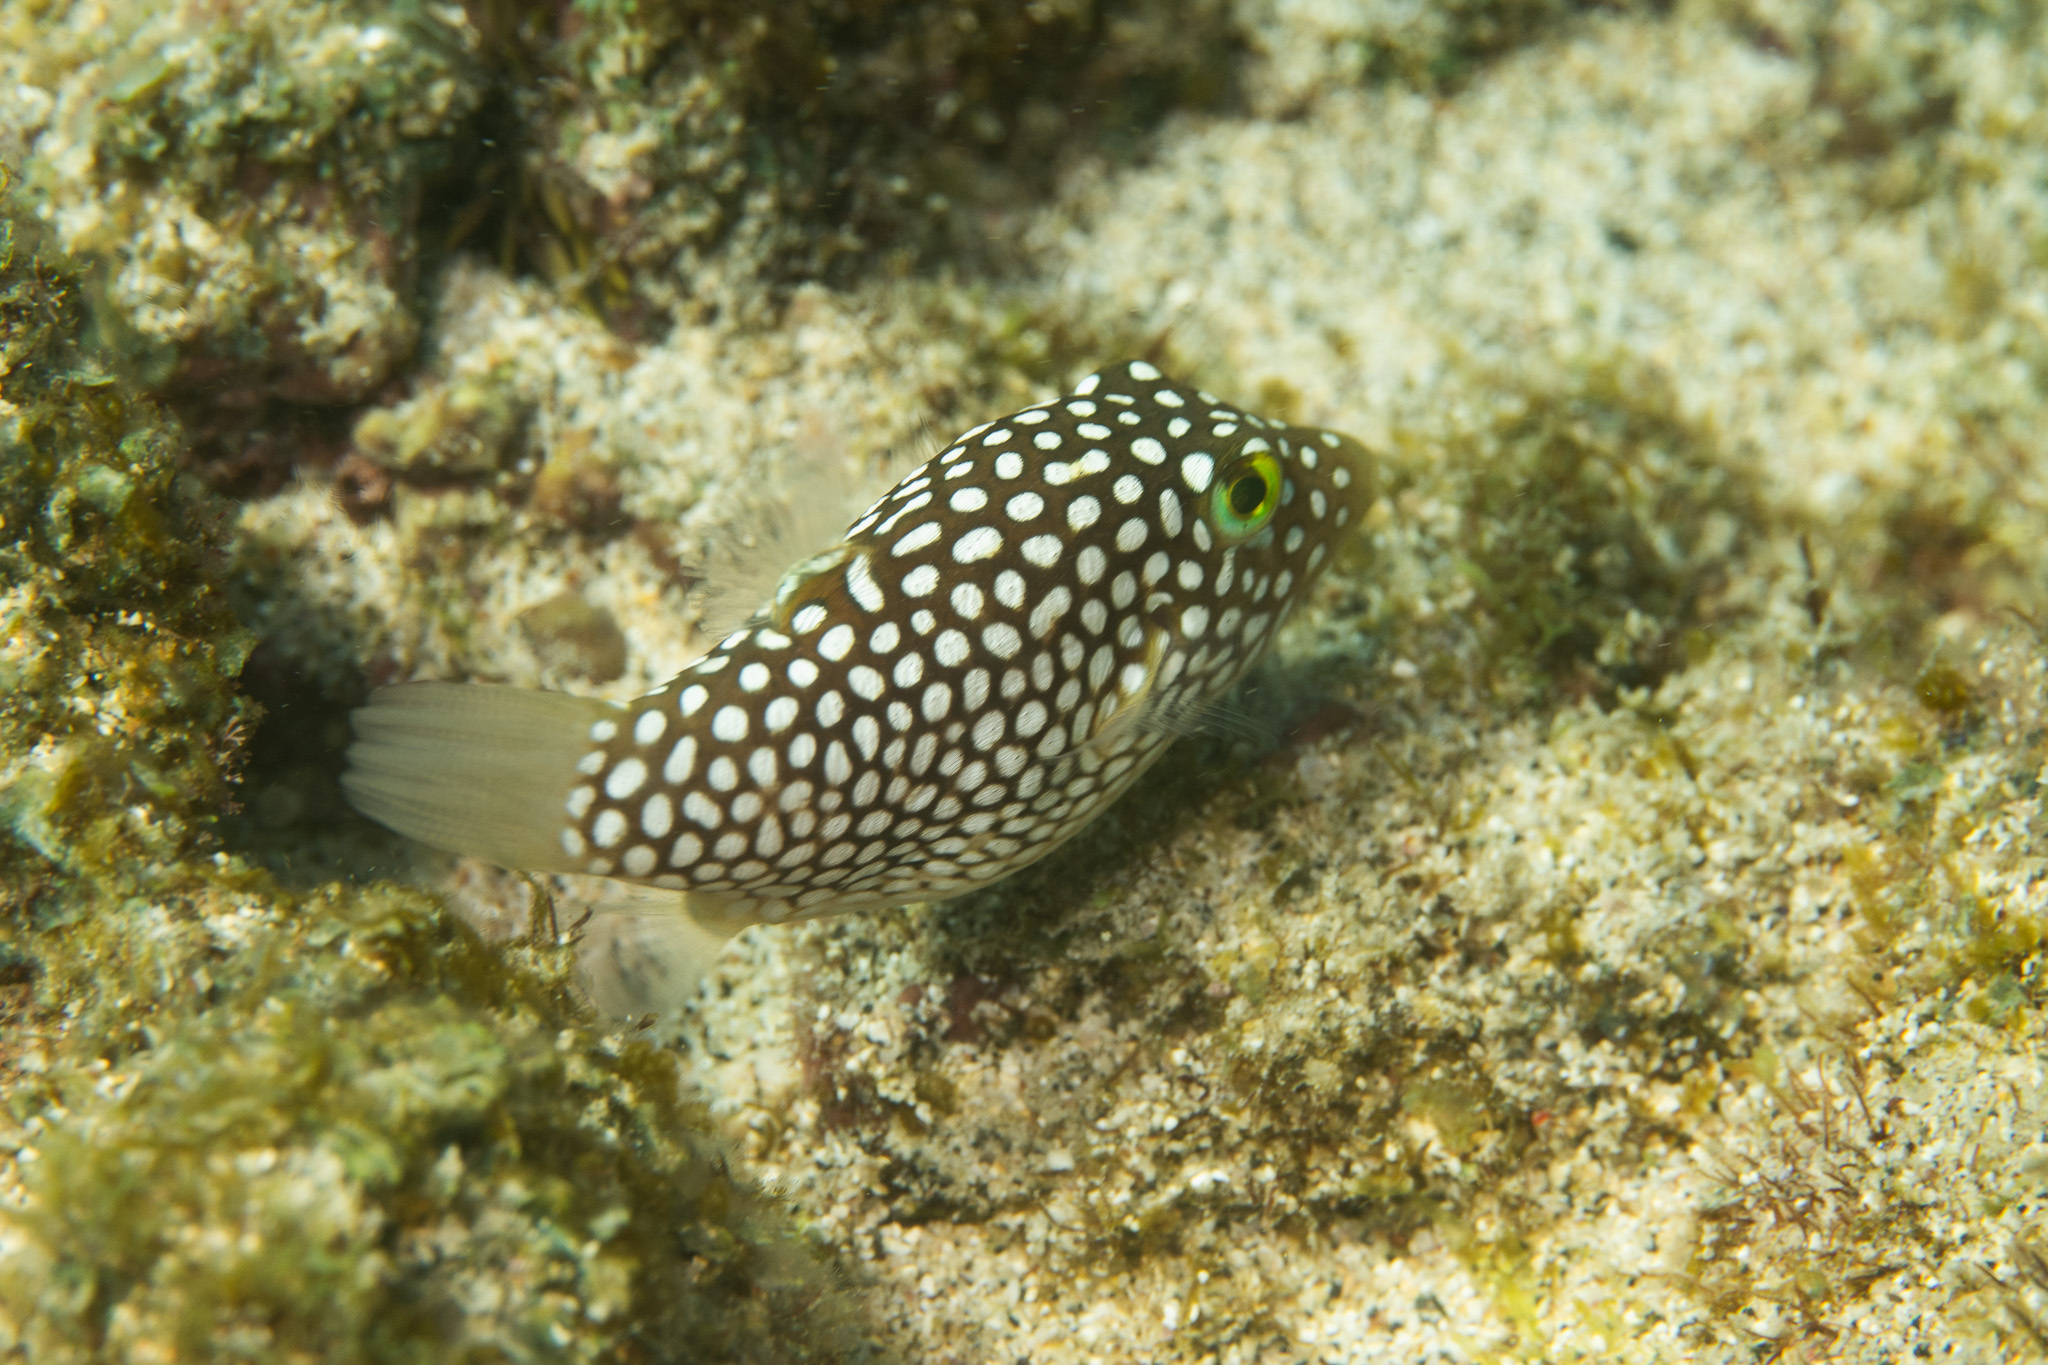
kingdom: Animalia
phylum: Chordata
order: Tetraodontiformes
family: Tetraodontidae
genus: Canthigaster
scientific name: Canthigaster jactator
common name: Hawaiian whitespotted toby
